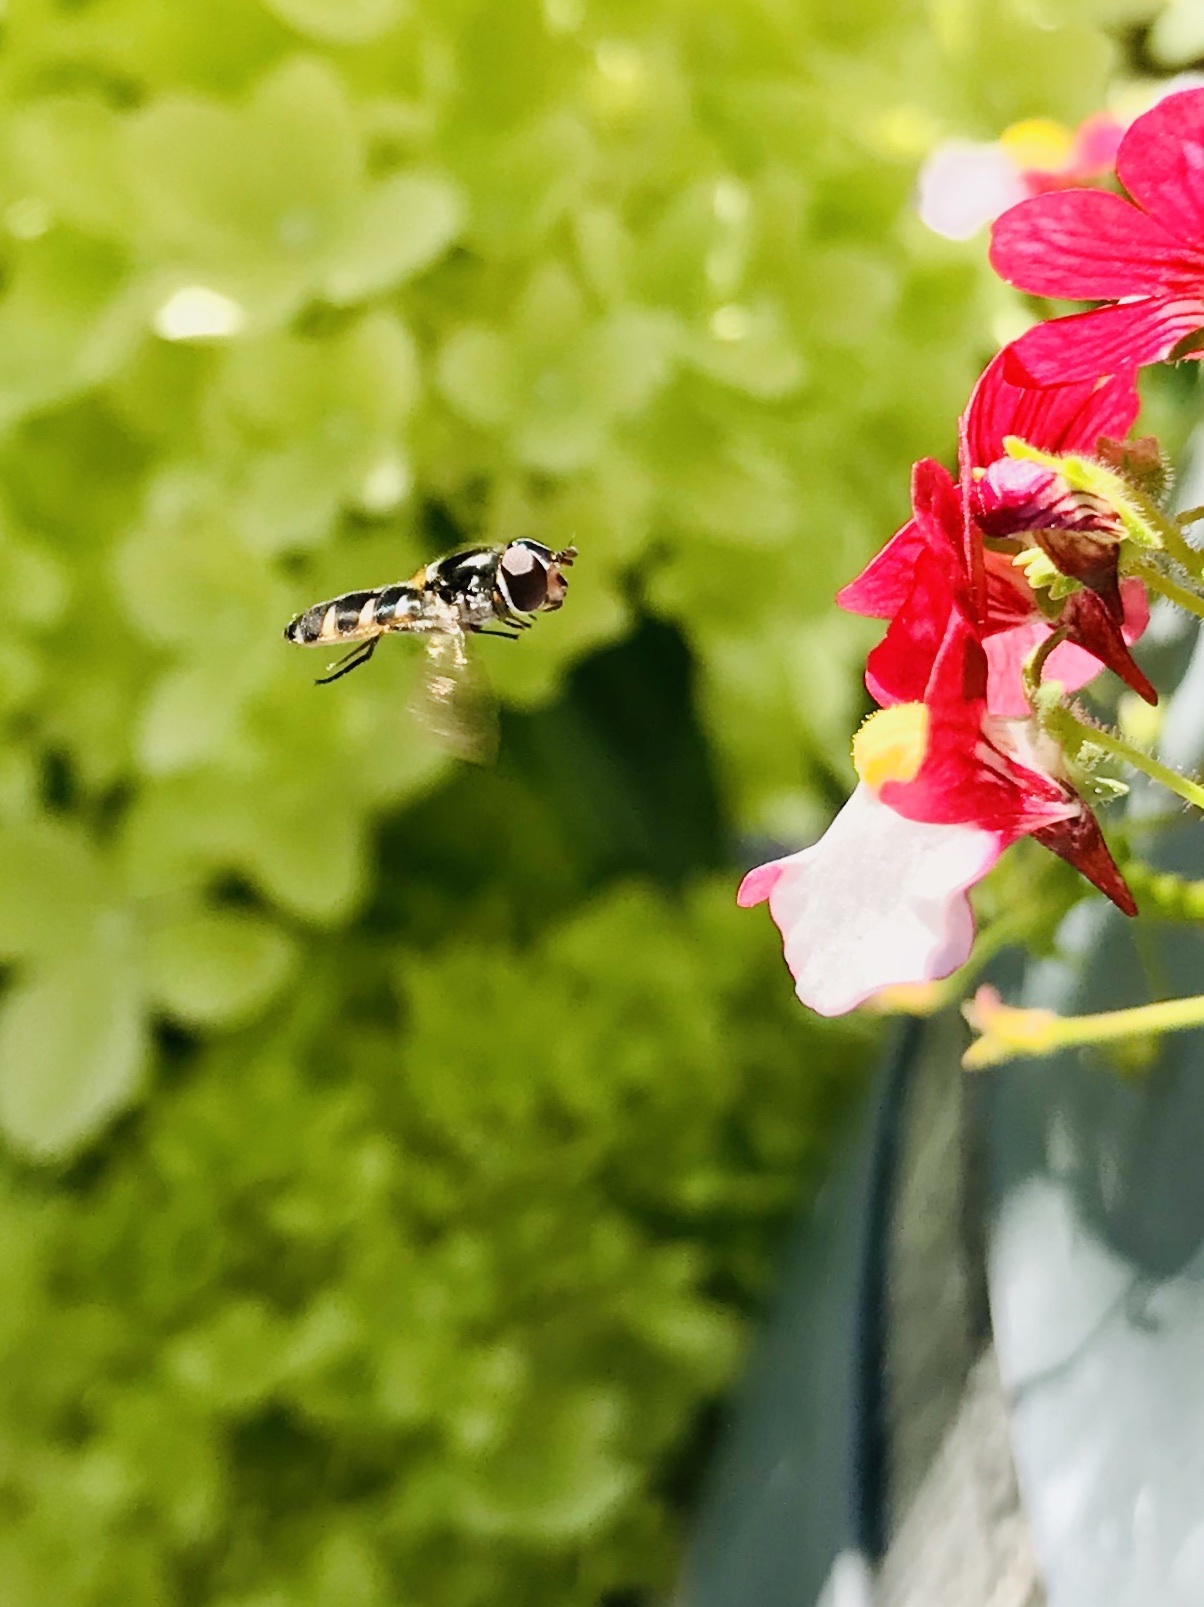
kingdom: Animalia
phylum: Arthropoda
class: Insecta
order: Diptera
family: Syrphidae
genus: Melangyna
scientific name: Melangyna novaezelandiae
